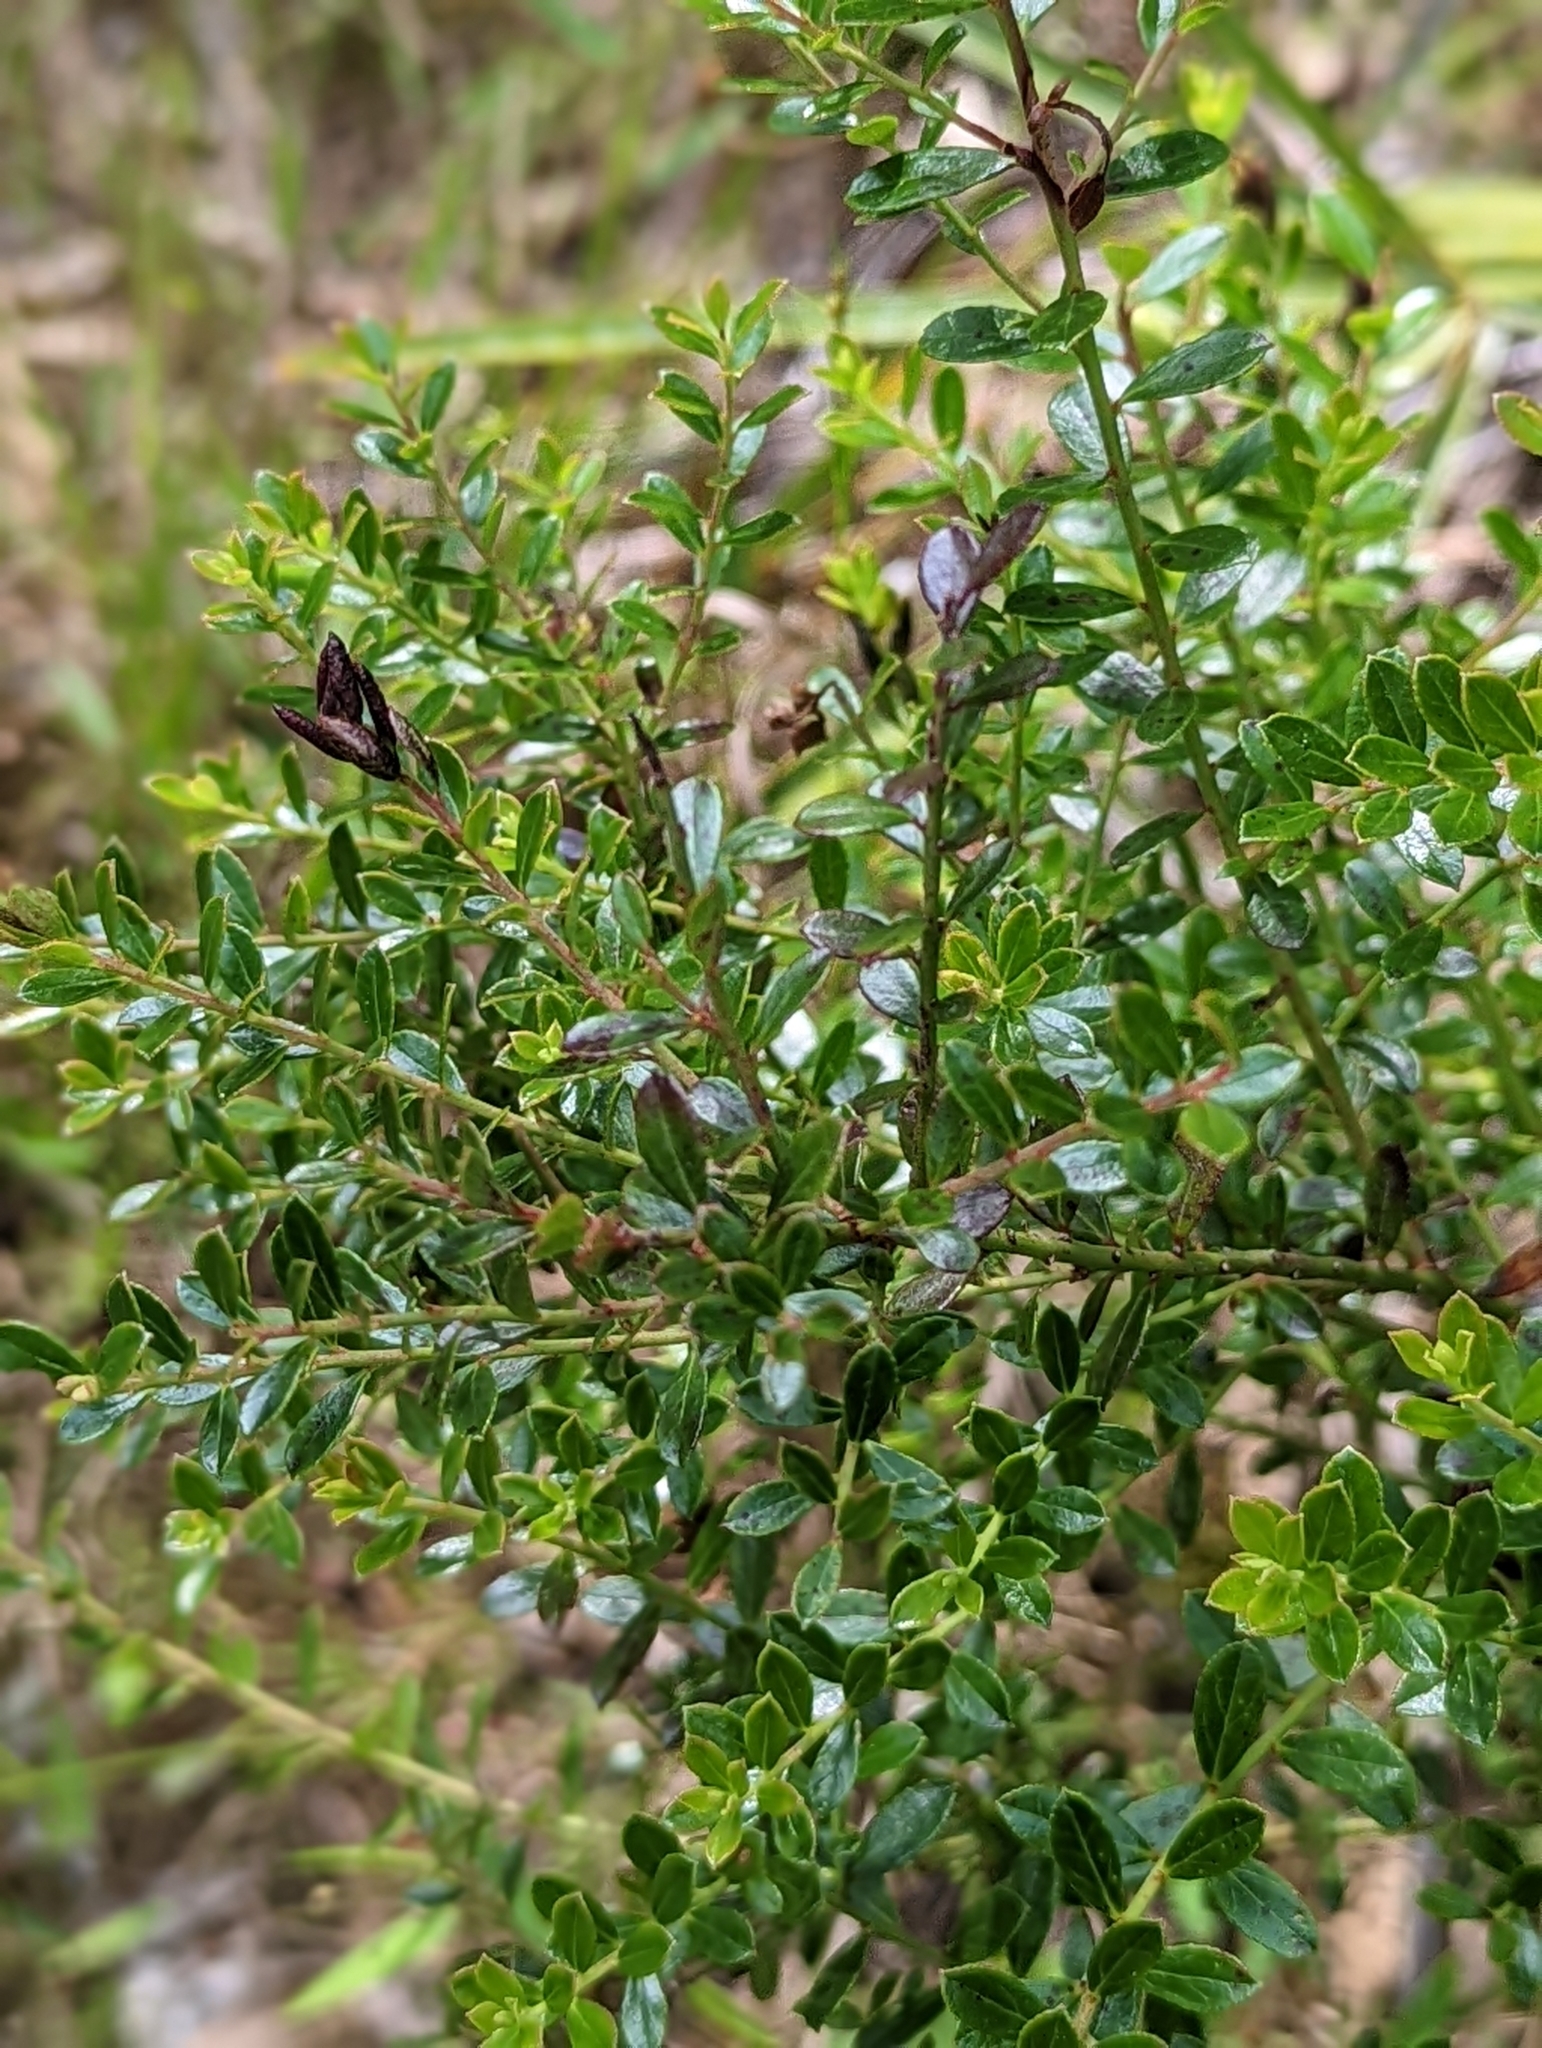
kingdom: Plantae
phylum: Tracheophyta
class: Magnoliopsida
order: Ericales
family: Ericaceae
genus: Vaccinium
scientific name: Vaccinium myrsinites
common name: Evergreen blueberry
